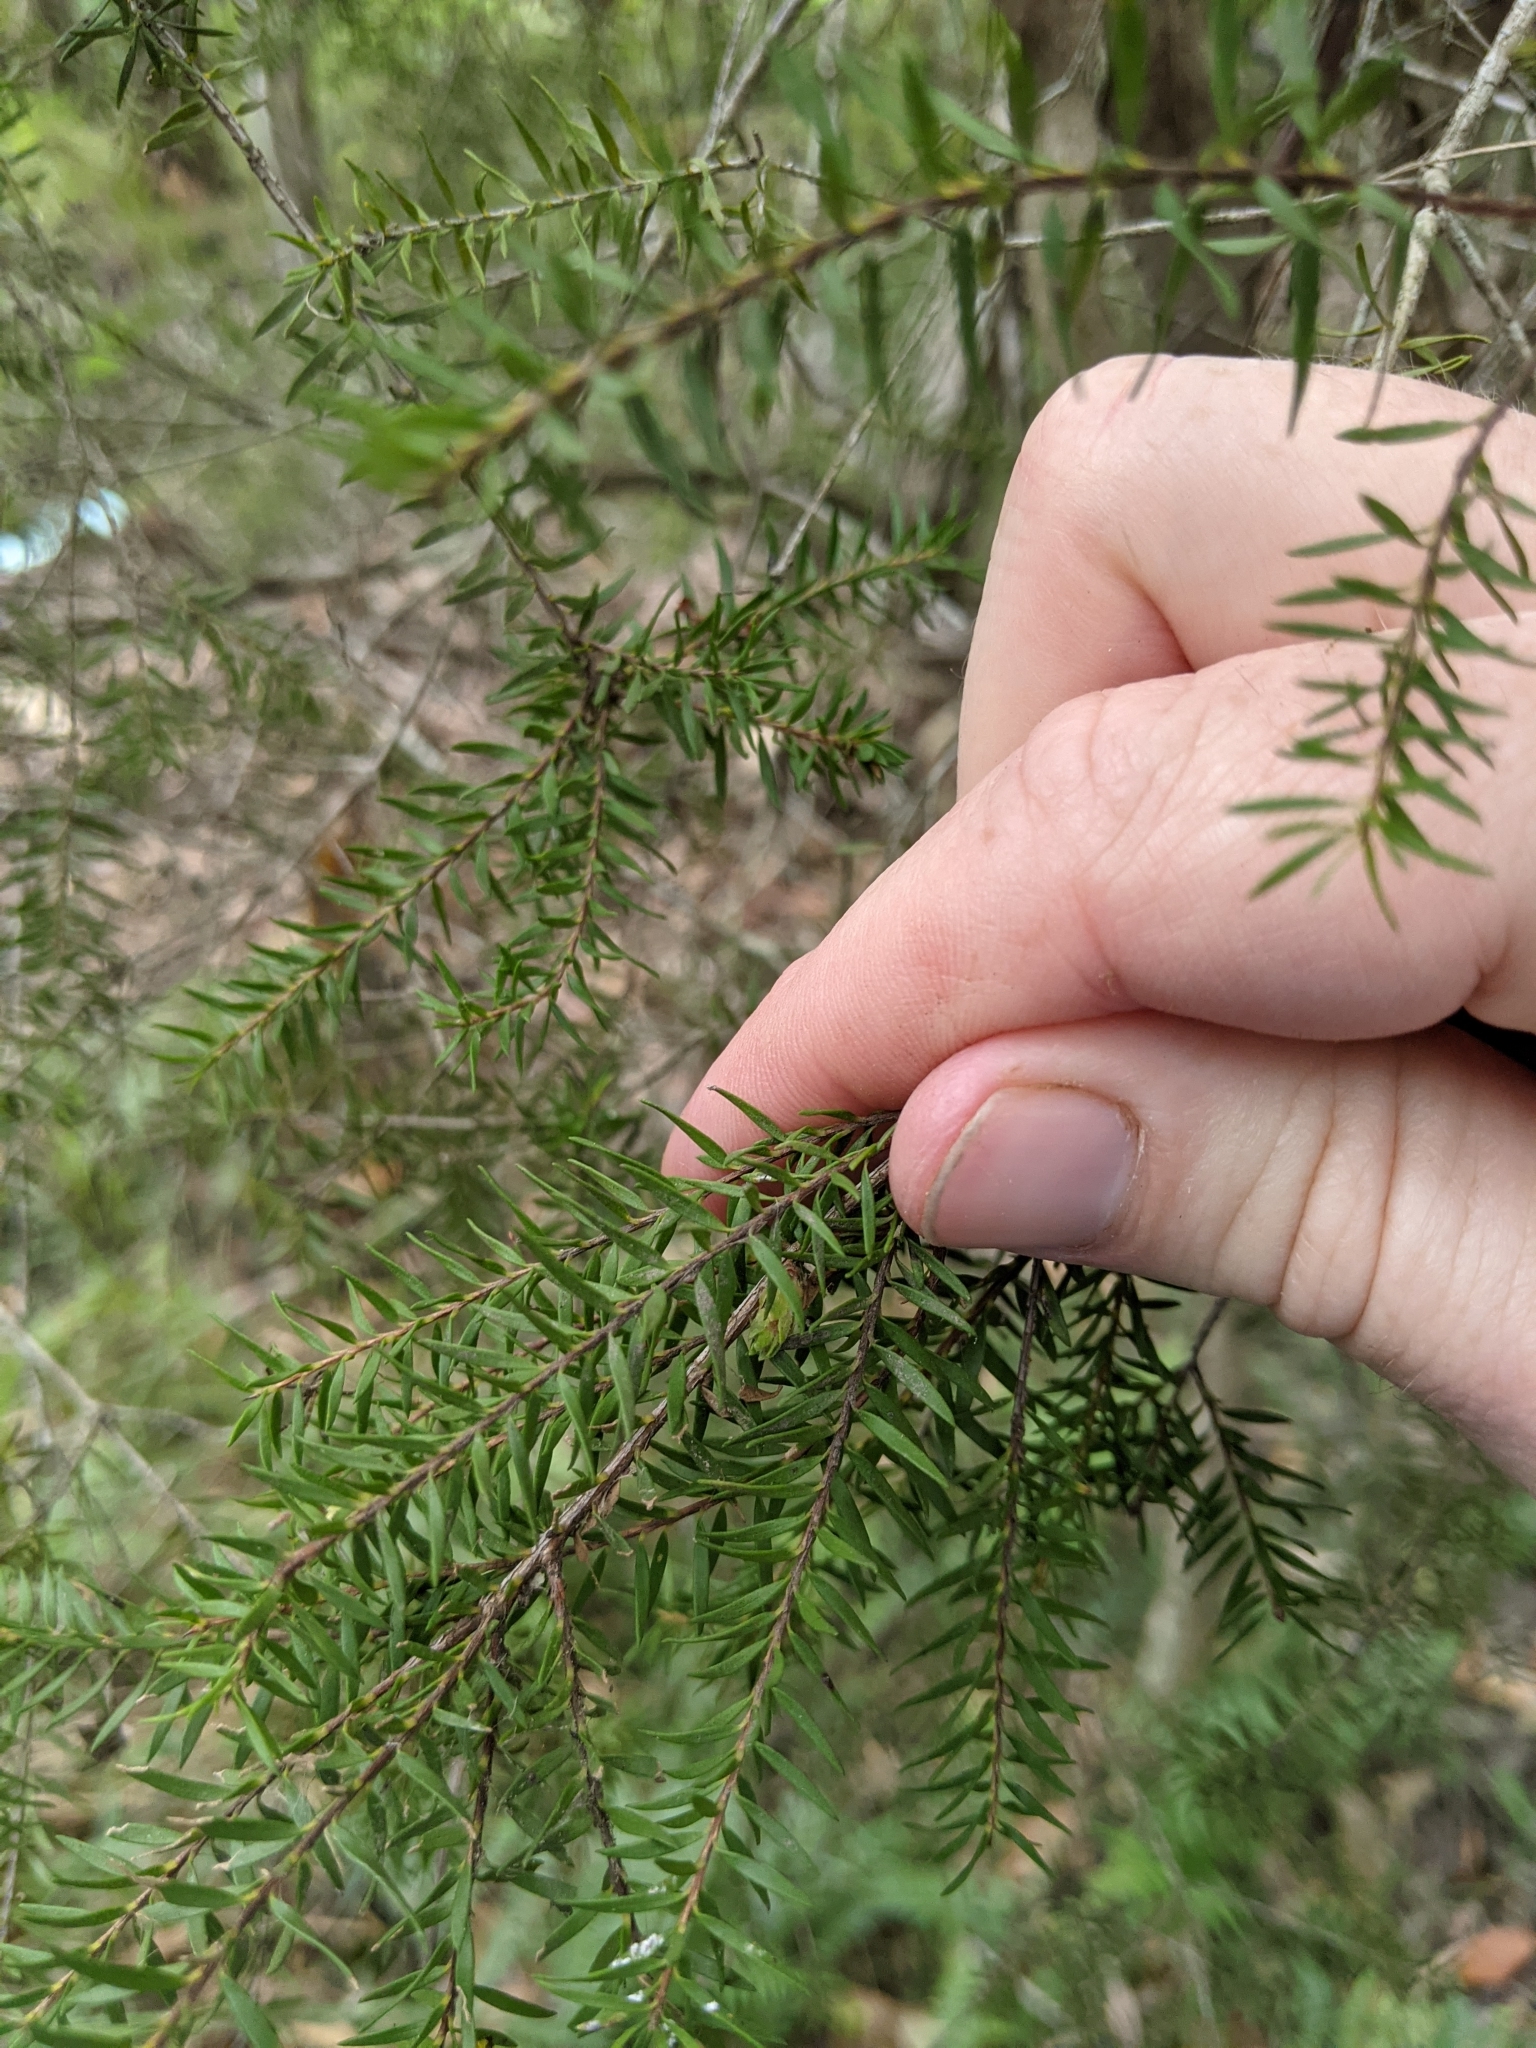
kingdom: Plantae
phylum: Tracheophyta
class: Magnoliopsida
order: Myrtales
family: Myrtaceae
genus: Melaleuca
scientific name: Melaleuca sieberi
